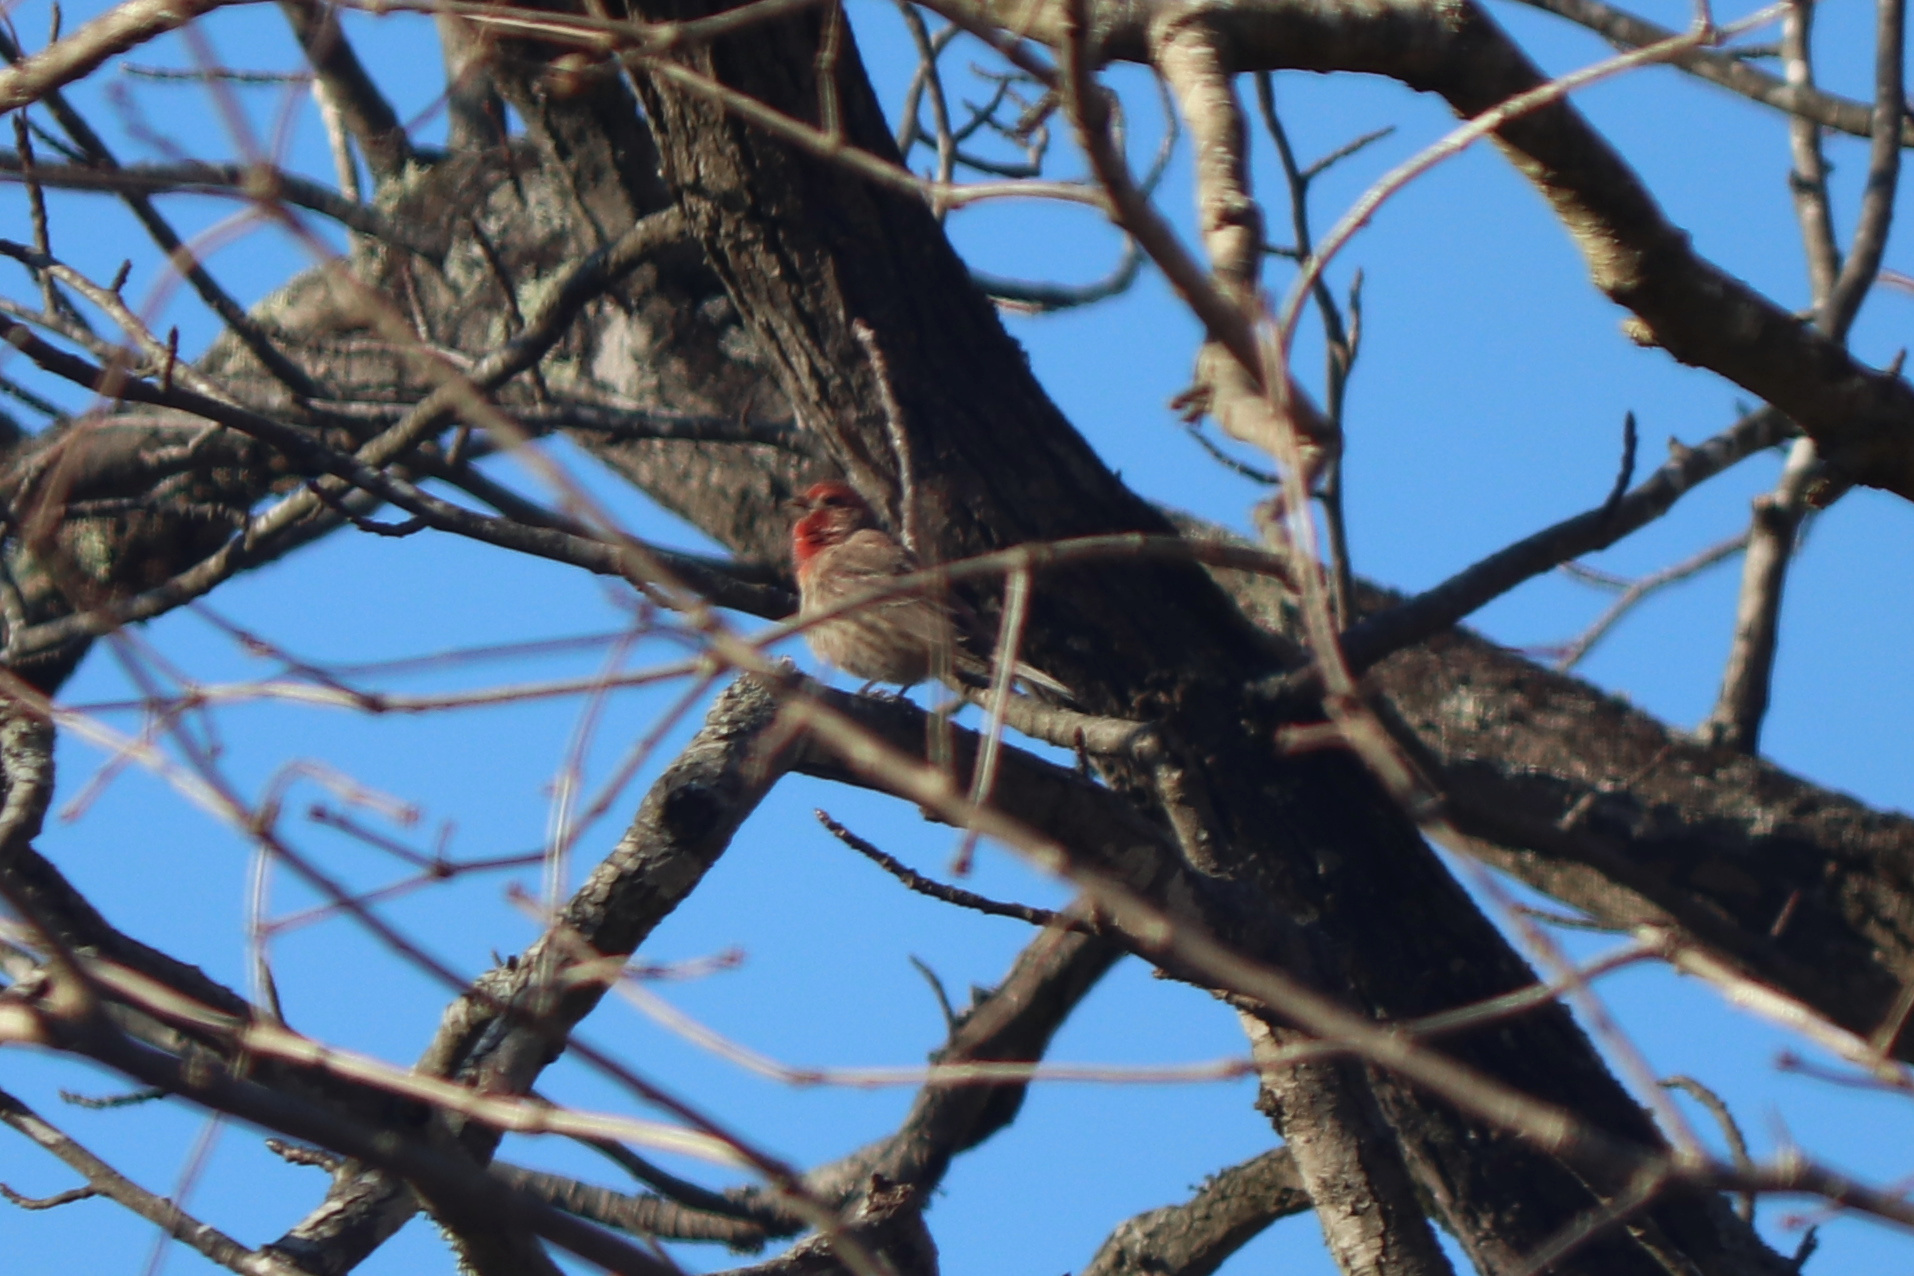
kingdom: Animalia
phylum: Chordata
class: Aves
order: Passeriformes
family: Fringillidae
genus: Haemorhous
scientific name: Haemorhous mexicanus
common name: House finch
